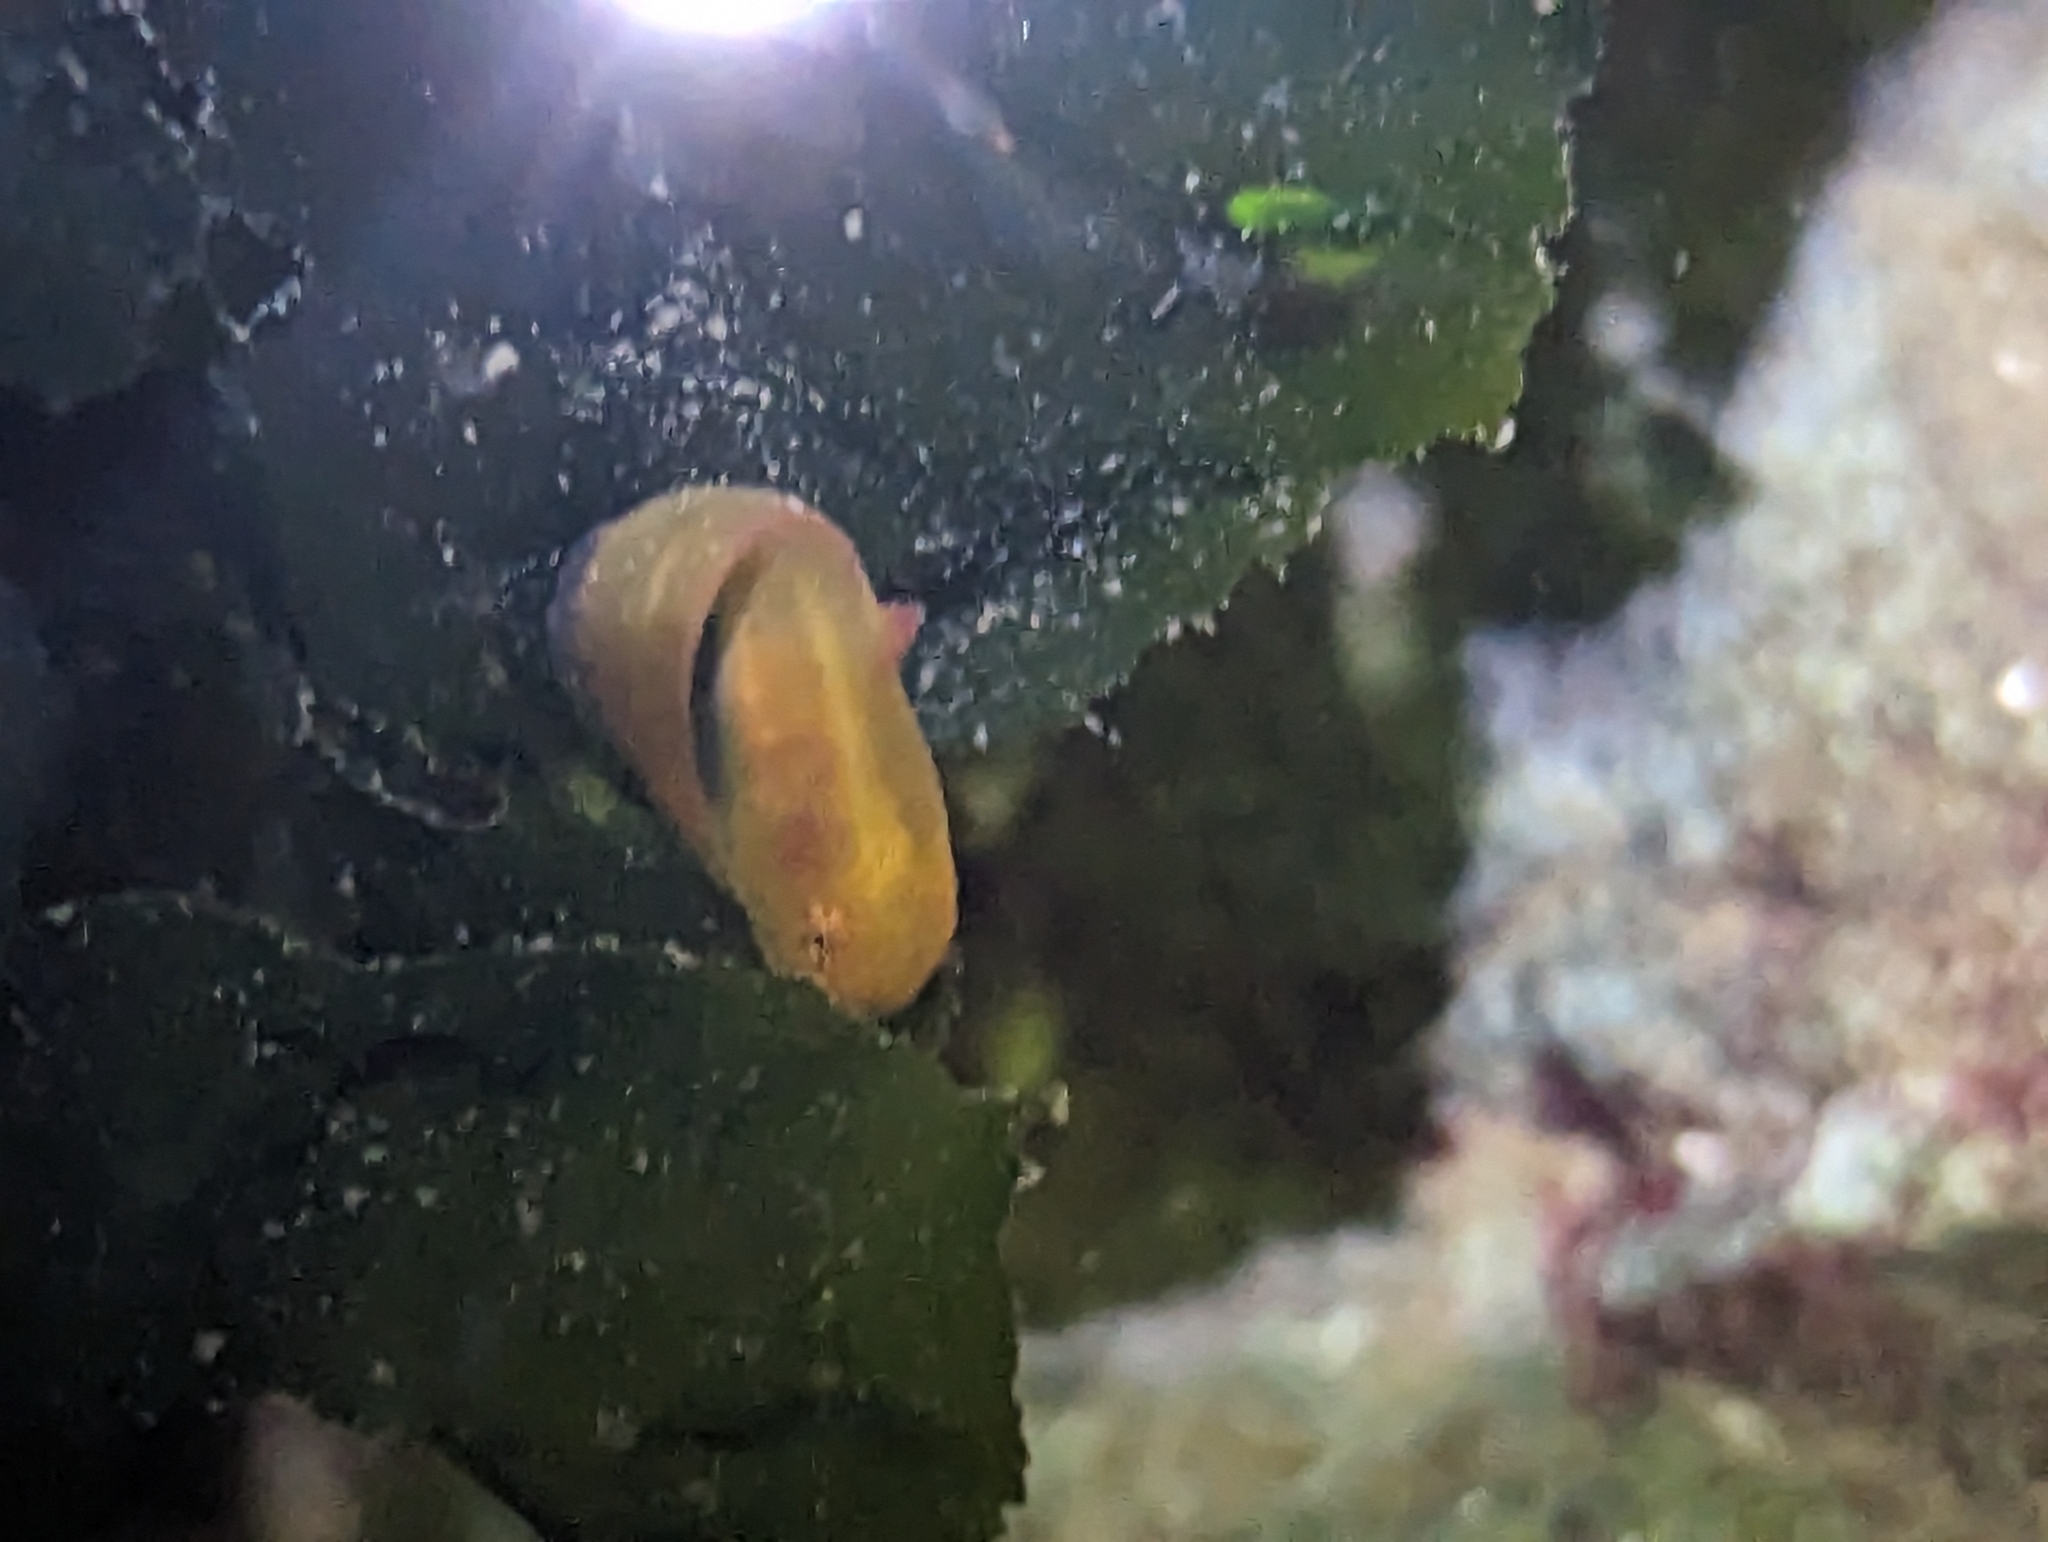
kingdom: Animalia
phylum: Chordata
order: Scorpaeniformes
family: Liparidae
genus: Liparis
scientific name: Liparis florae
